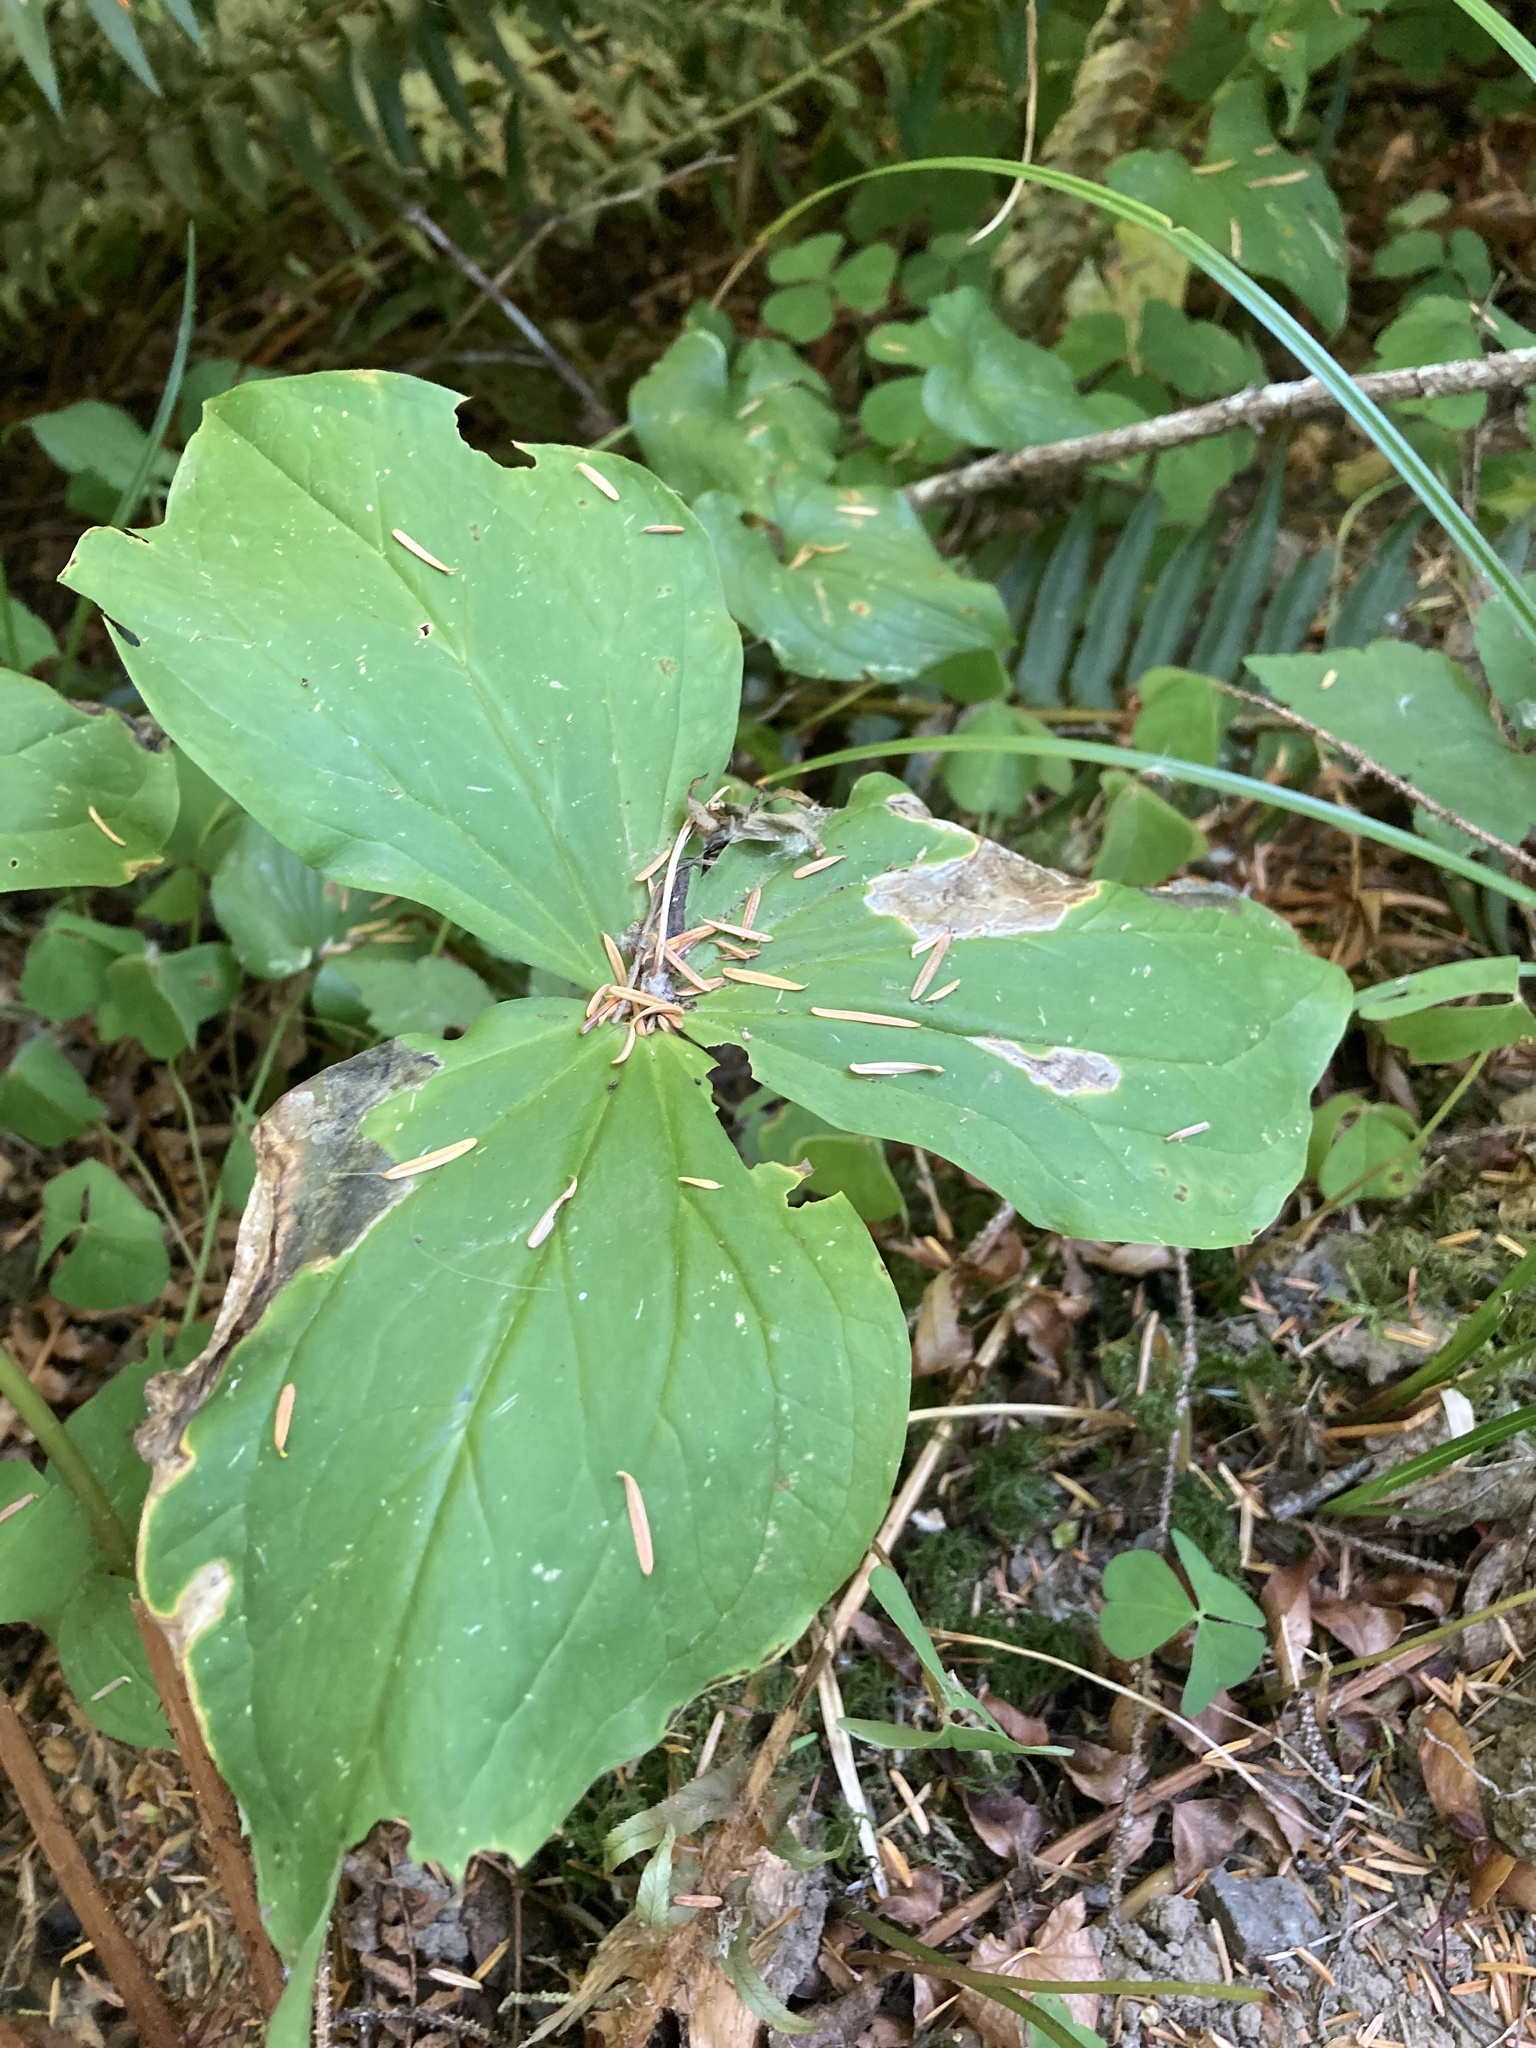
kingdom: Plantae
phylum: Tracheophyta
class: Liliopsida
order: Liliales
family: Melanthiaceae
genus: Trillium
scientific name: Trillium ovatum
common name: Pacific trillium
